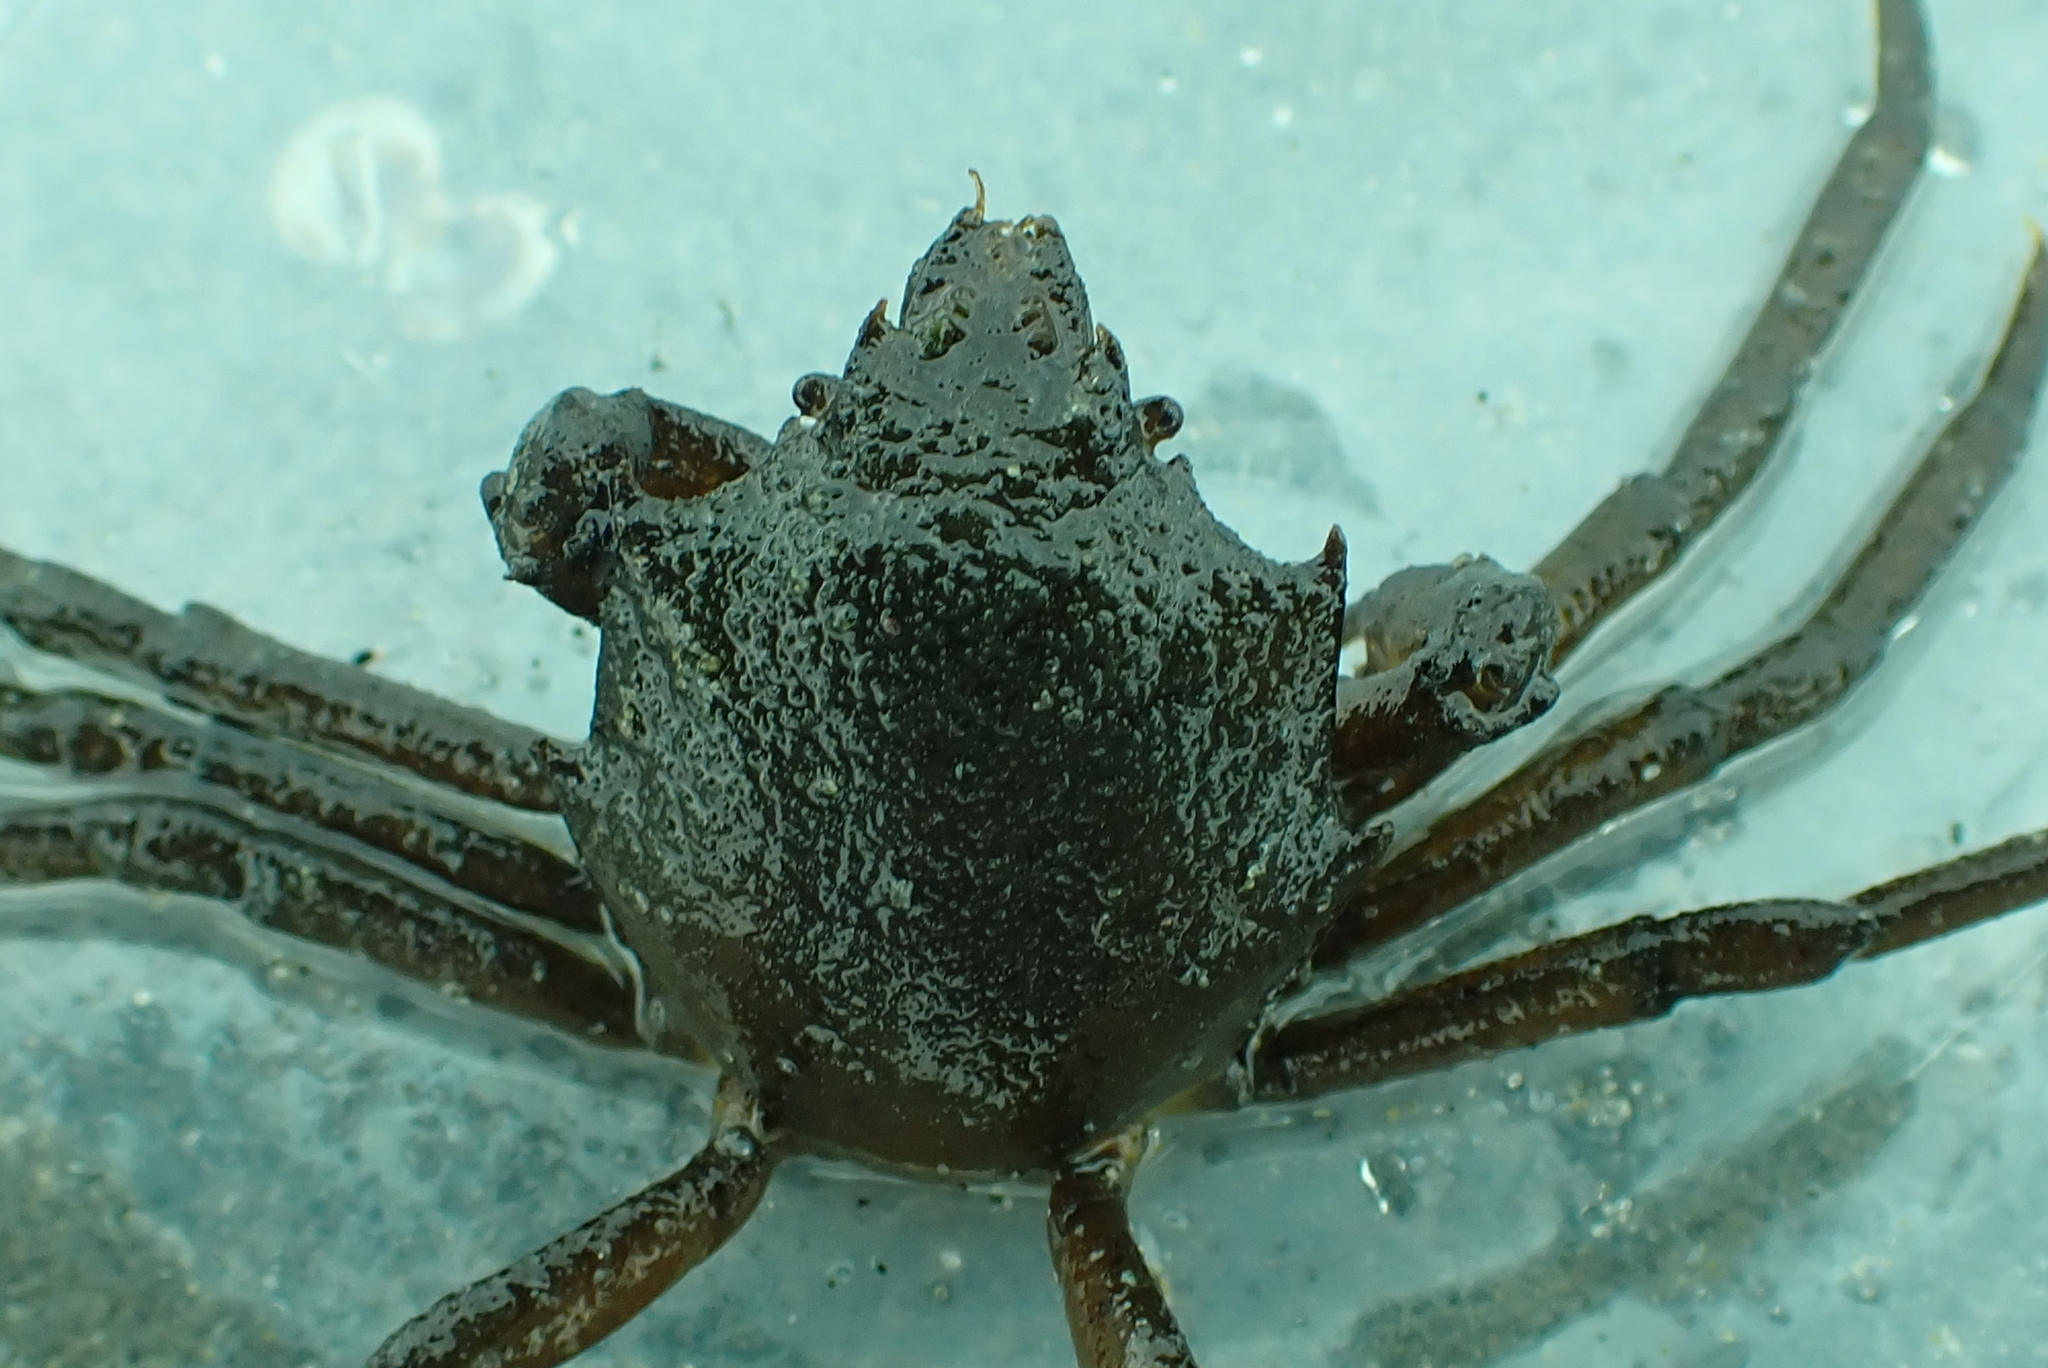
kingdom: Animalia
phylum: Arthropoda
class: Malacostraca
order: Decapoda
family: Epialtidae
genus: Pugettia
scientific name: Pugettia producta
